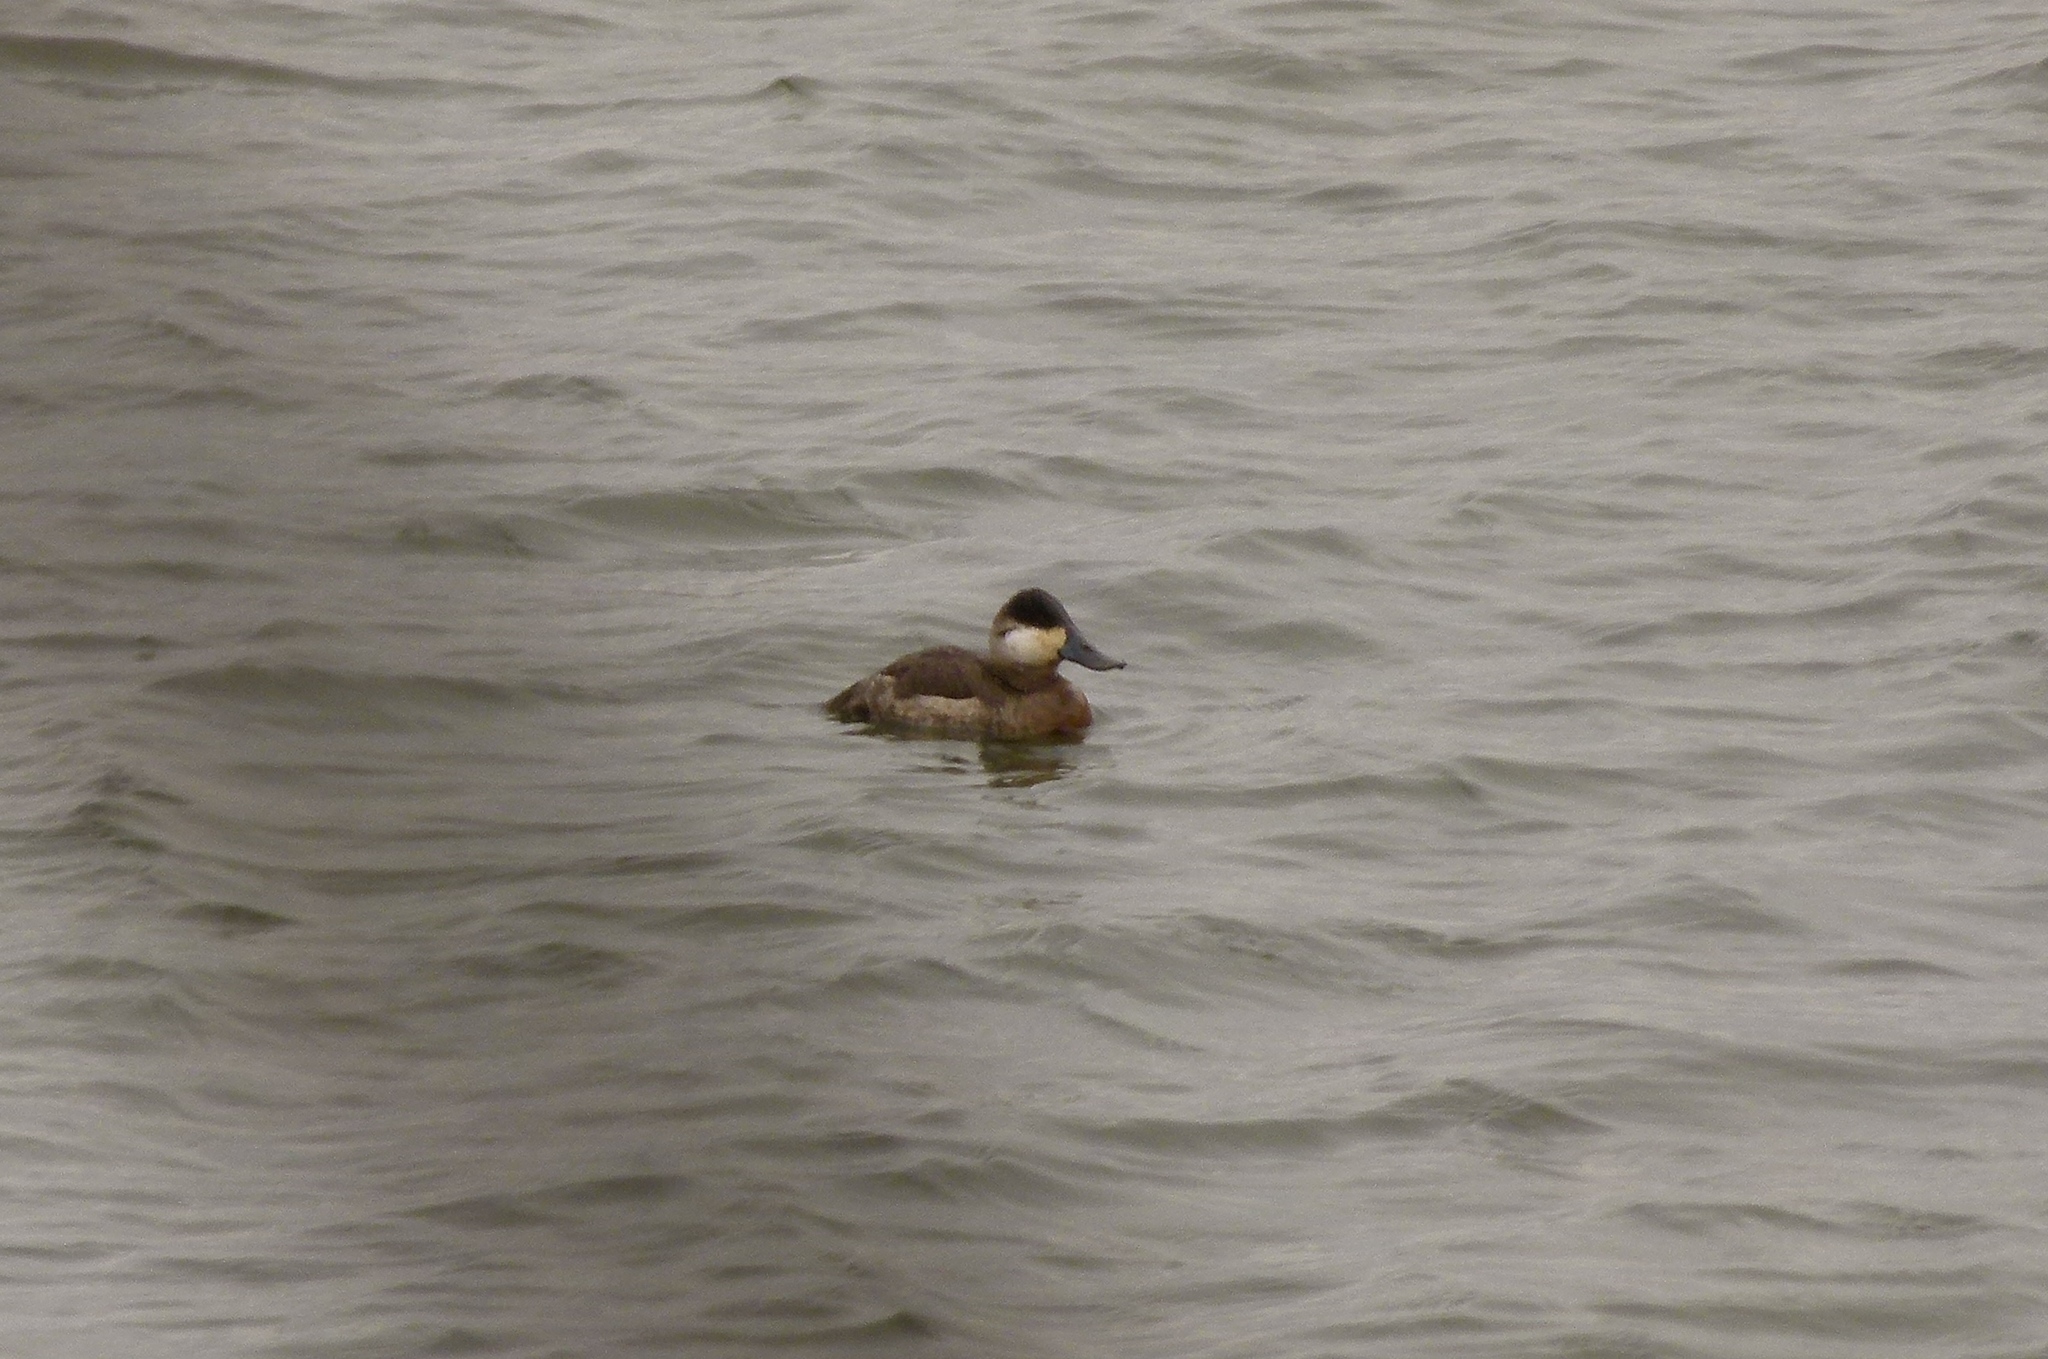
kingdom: Animalia
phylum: Chordata
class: Aves
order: Anseriformes
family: Anatidae
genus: Oxyura
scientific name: Oxyura jamaicensis
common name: Ruddy duck
